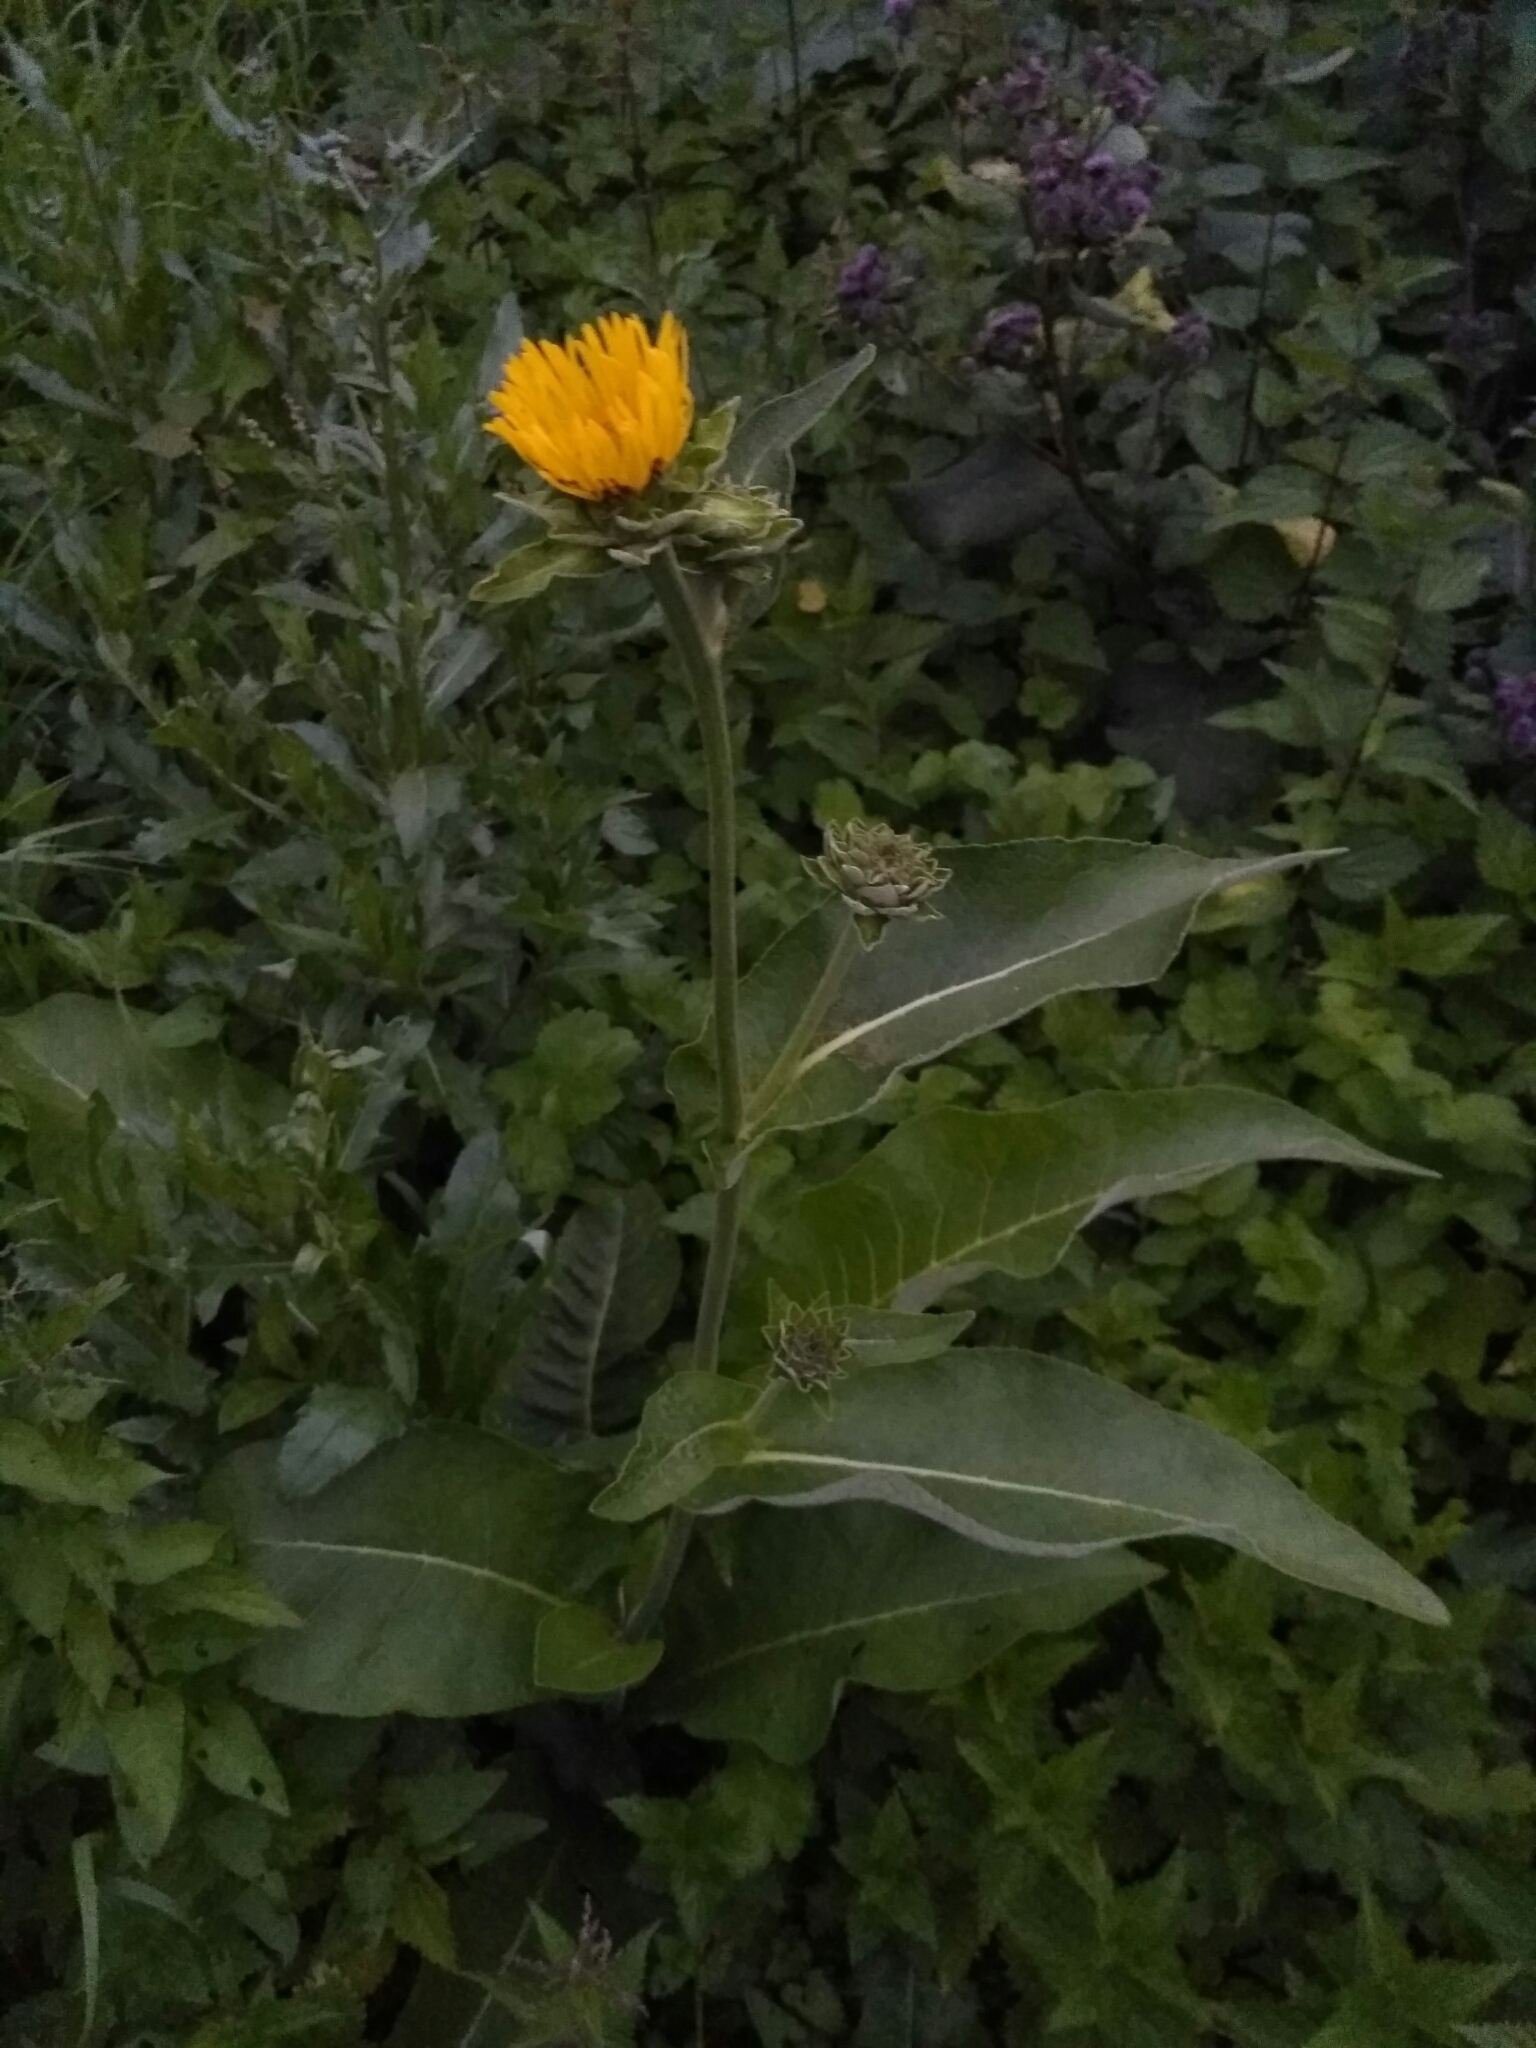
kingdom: Plantae
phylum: Tracheophyta
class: Magnoliopsida
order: Asterales
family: Asteraceae
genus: Inula
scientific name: Inula helenium
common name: Elecampane
